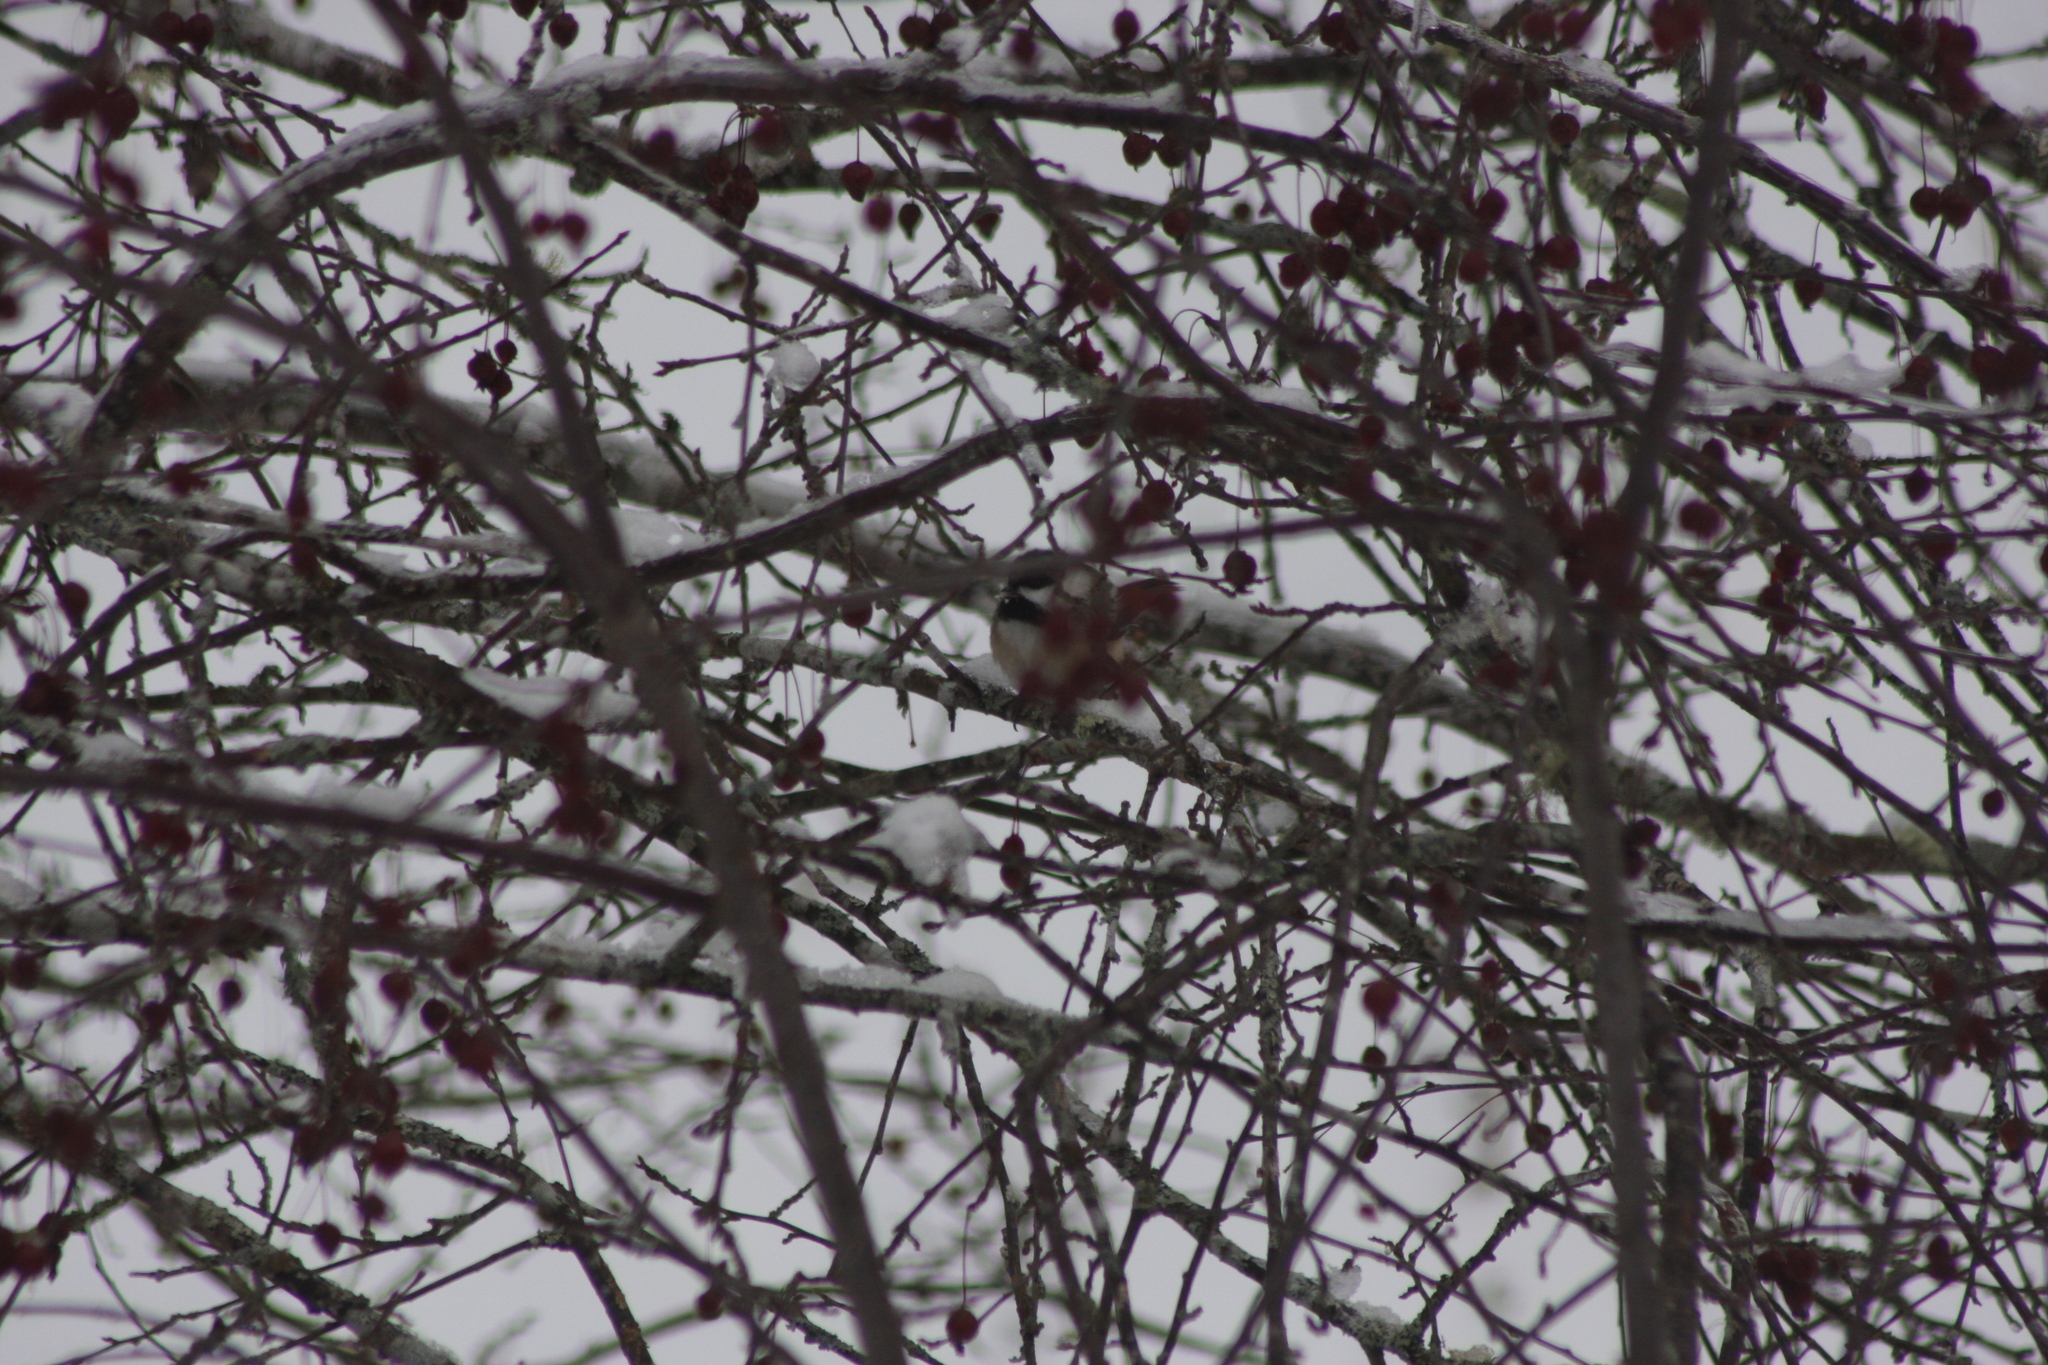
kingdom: Animalia
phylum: Chordata
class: Aves
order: Passeriformes
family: Paridae
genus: Poecile
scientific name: Poecile atricapillus
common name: Black-capped chickadee
